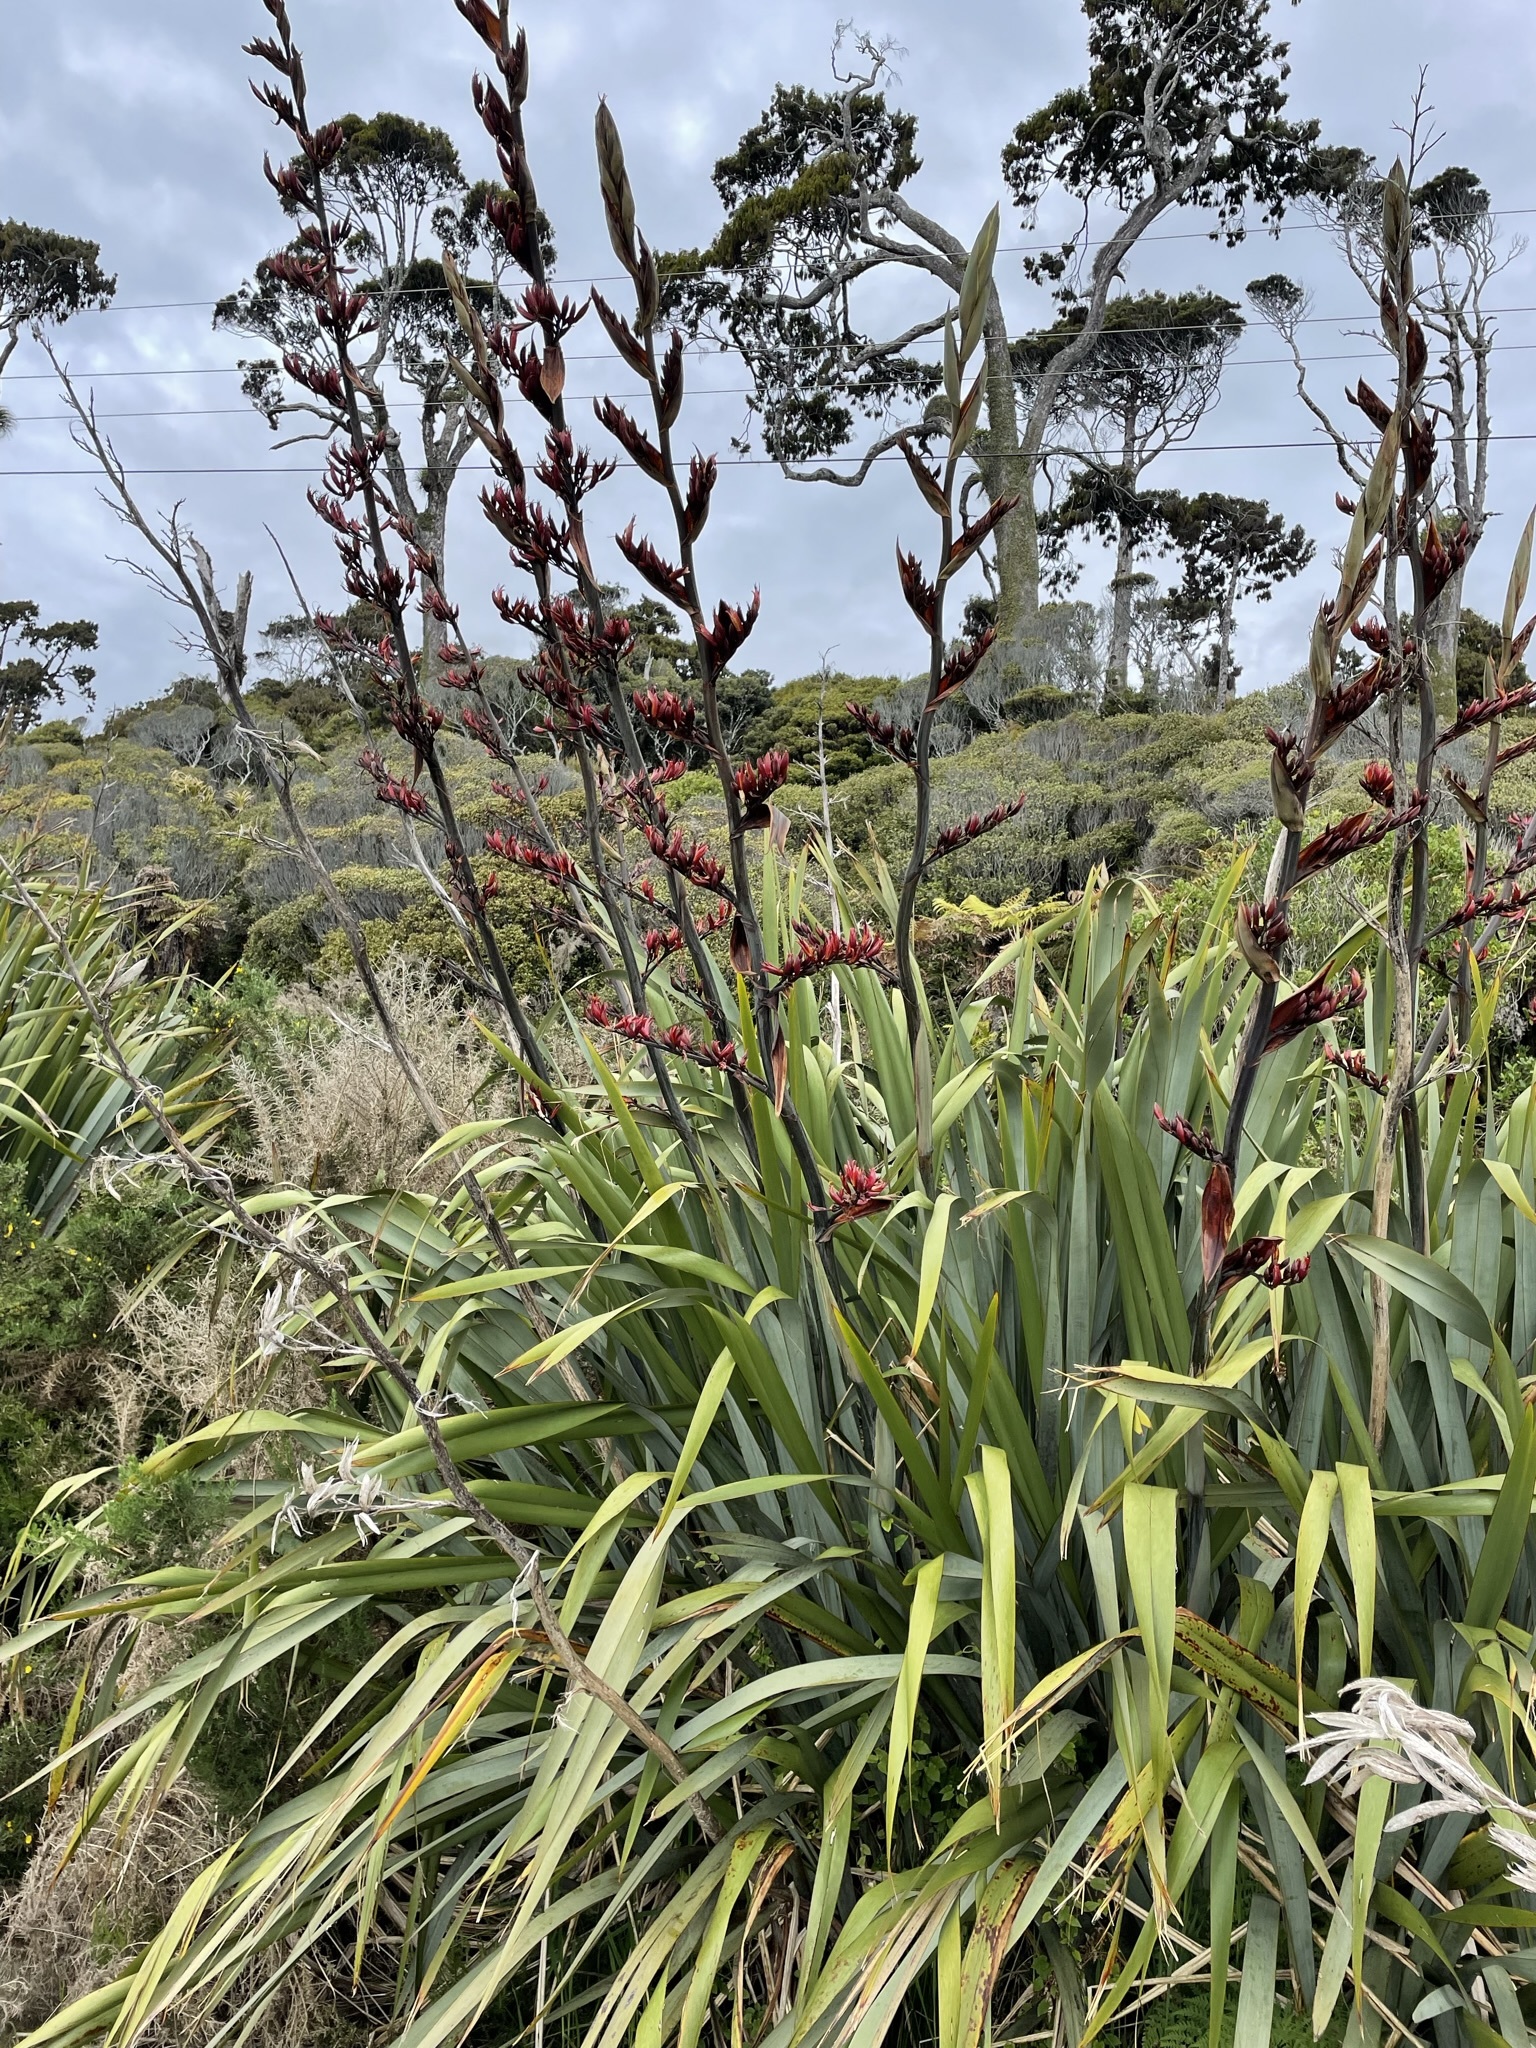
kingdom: Plantae
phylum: Tracheophyta
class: Liliopsida
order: Asparagales
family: Asphodelaceae
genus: Phormium
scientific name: Phormium tenax
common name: New zealand flax
